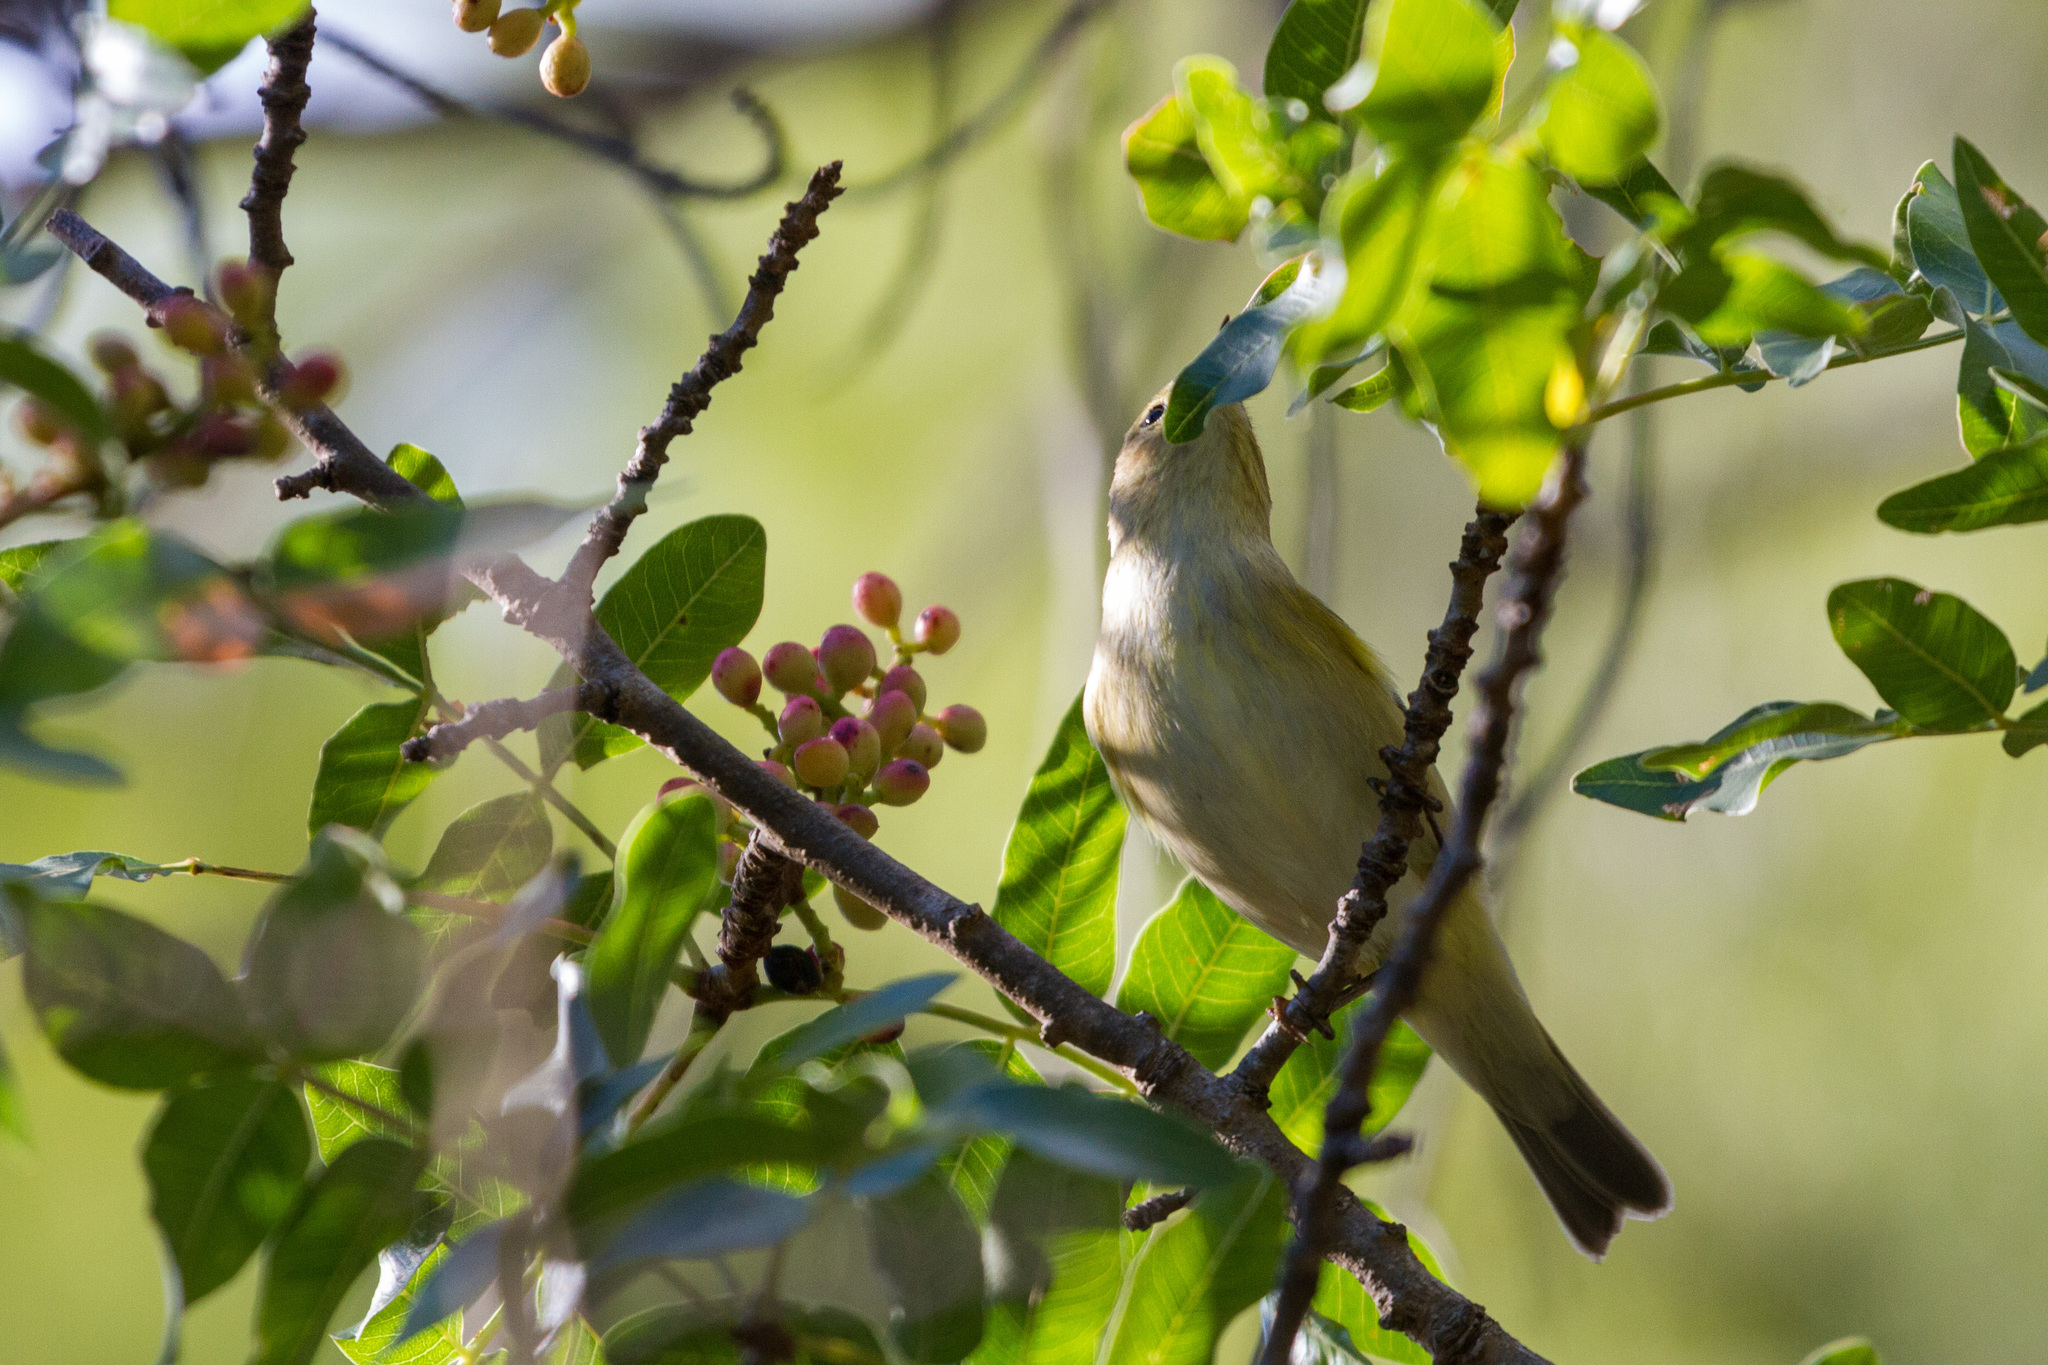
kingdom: Animalia
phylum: Chordata
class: Aves
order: Passeriformes
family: Phylloscopidae
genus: Phylloscopus
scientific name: Phylloscopus collybita
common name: Common chiffchaff
